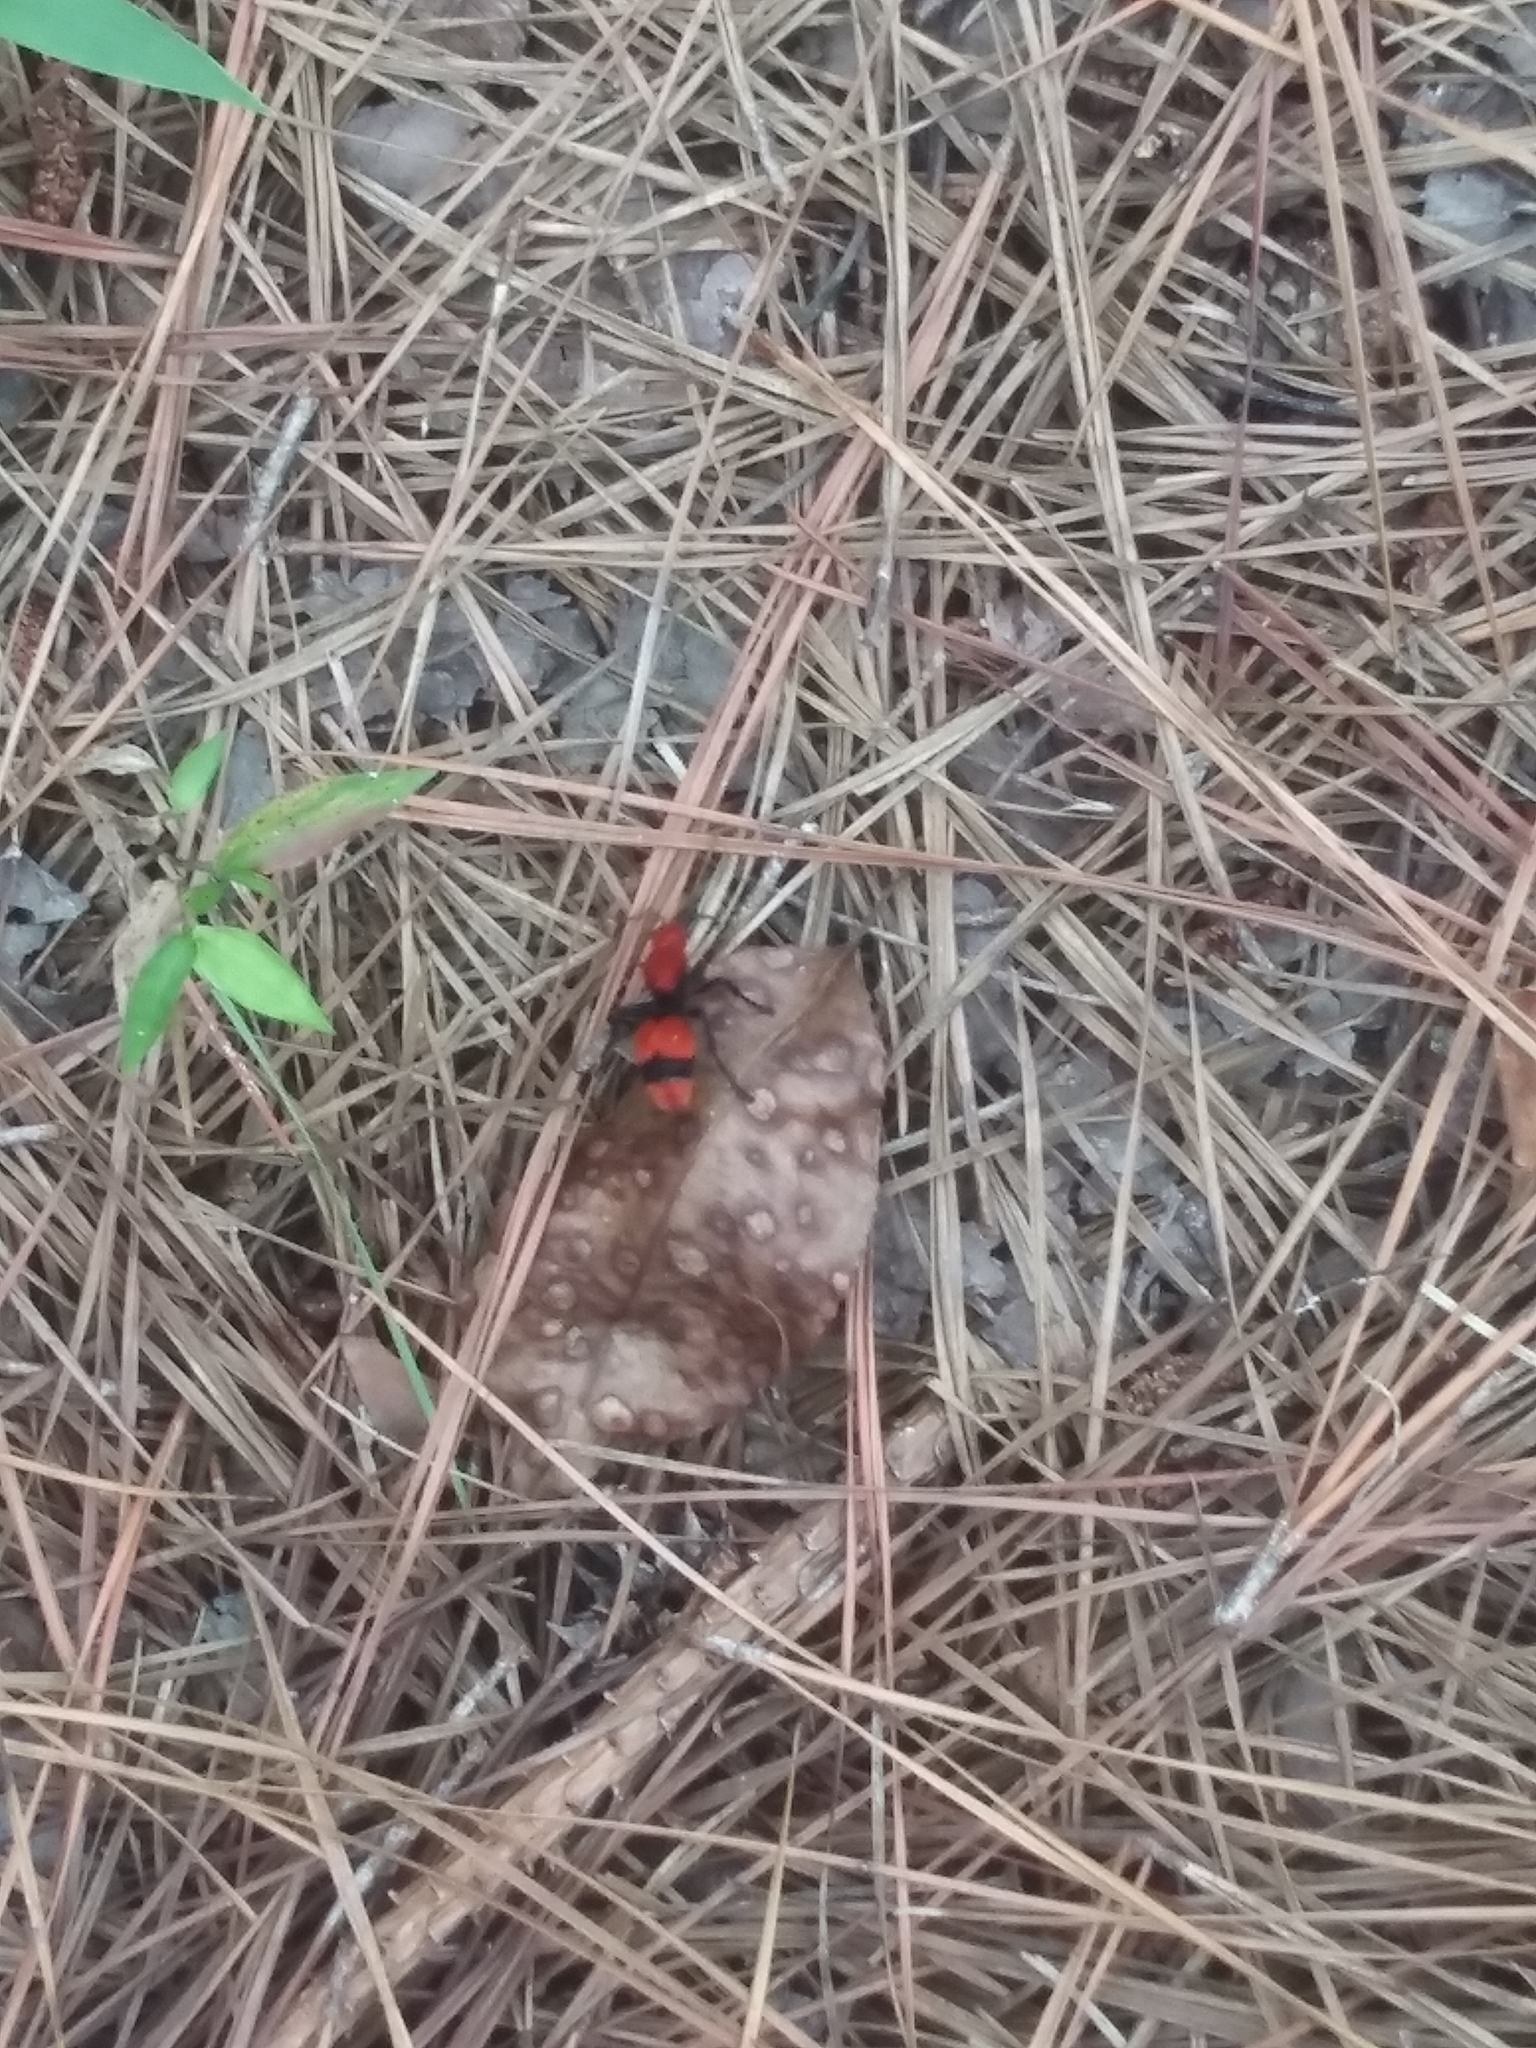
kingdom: Animalia
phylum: Arthropoda
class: Insecta
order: Hymenoptera
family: Mutillidae
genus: Dasymutilla
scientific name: Dasymutilla occidentalis
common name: Common eastern velvet ant
